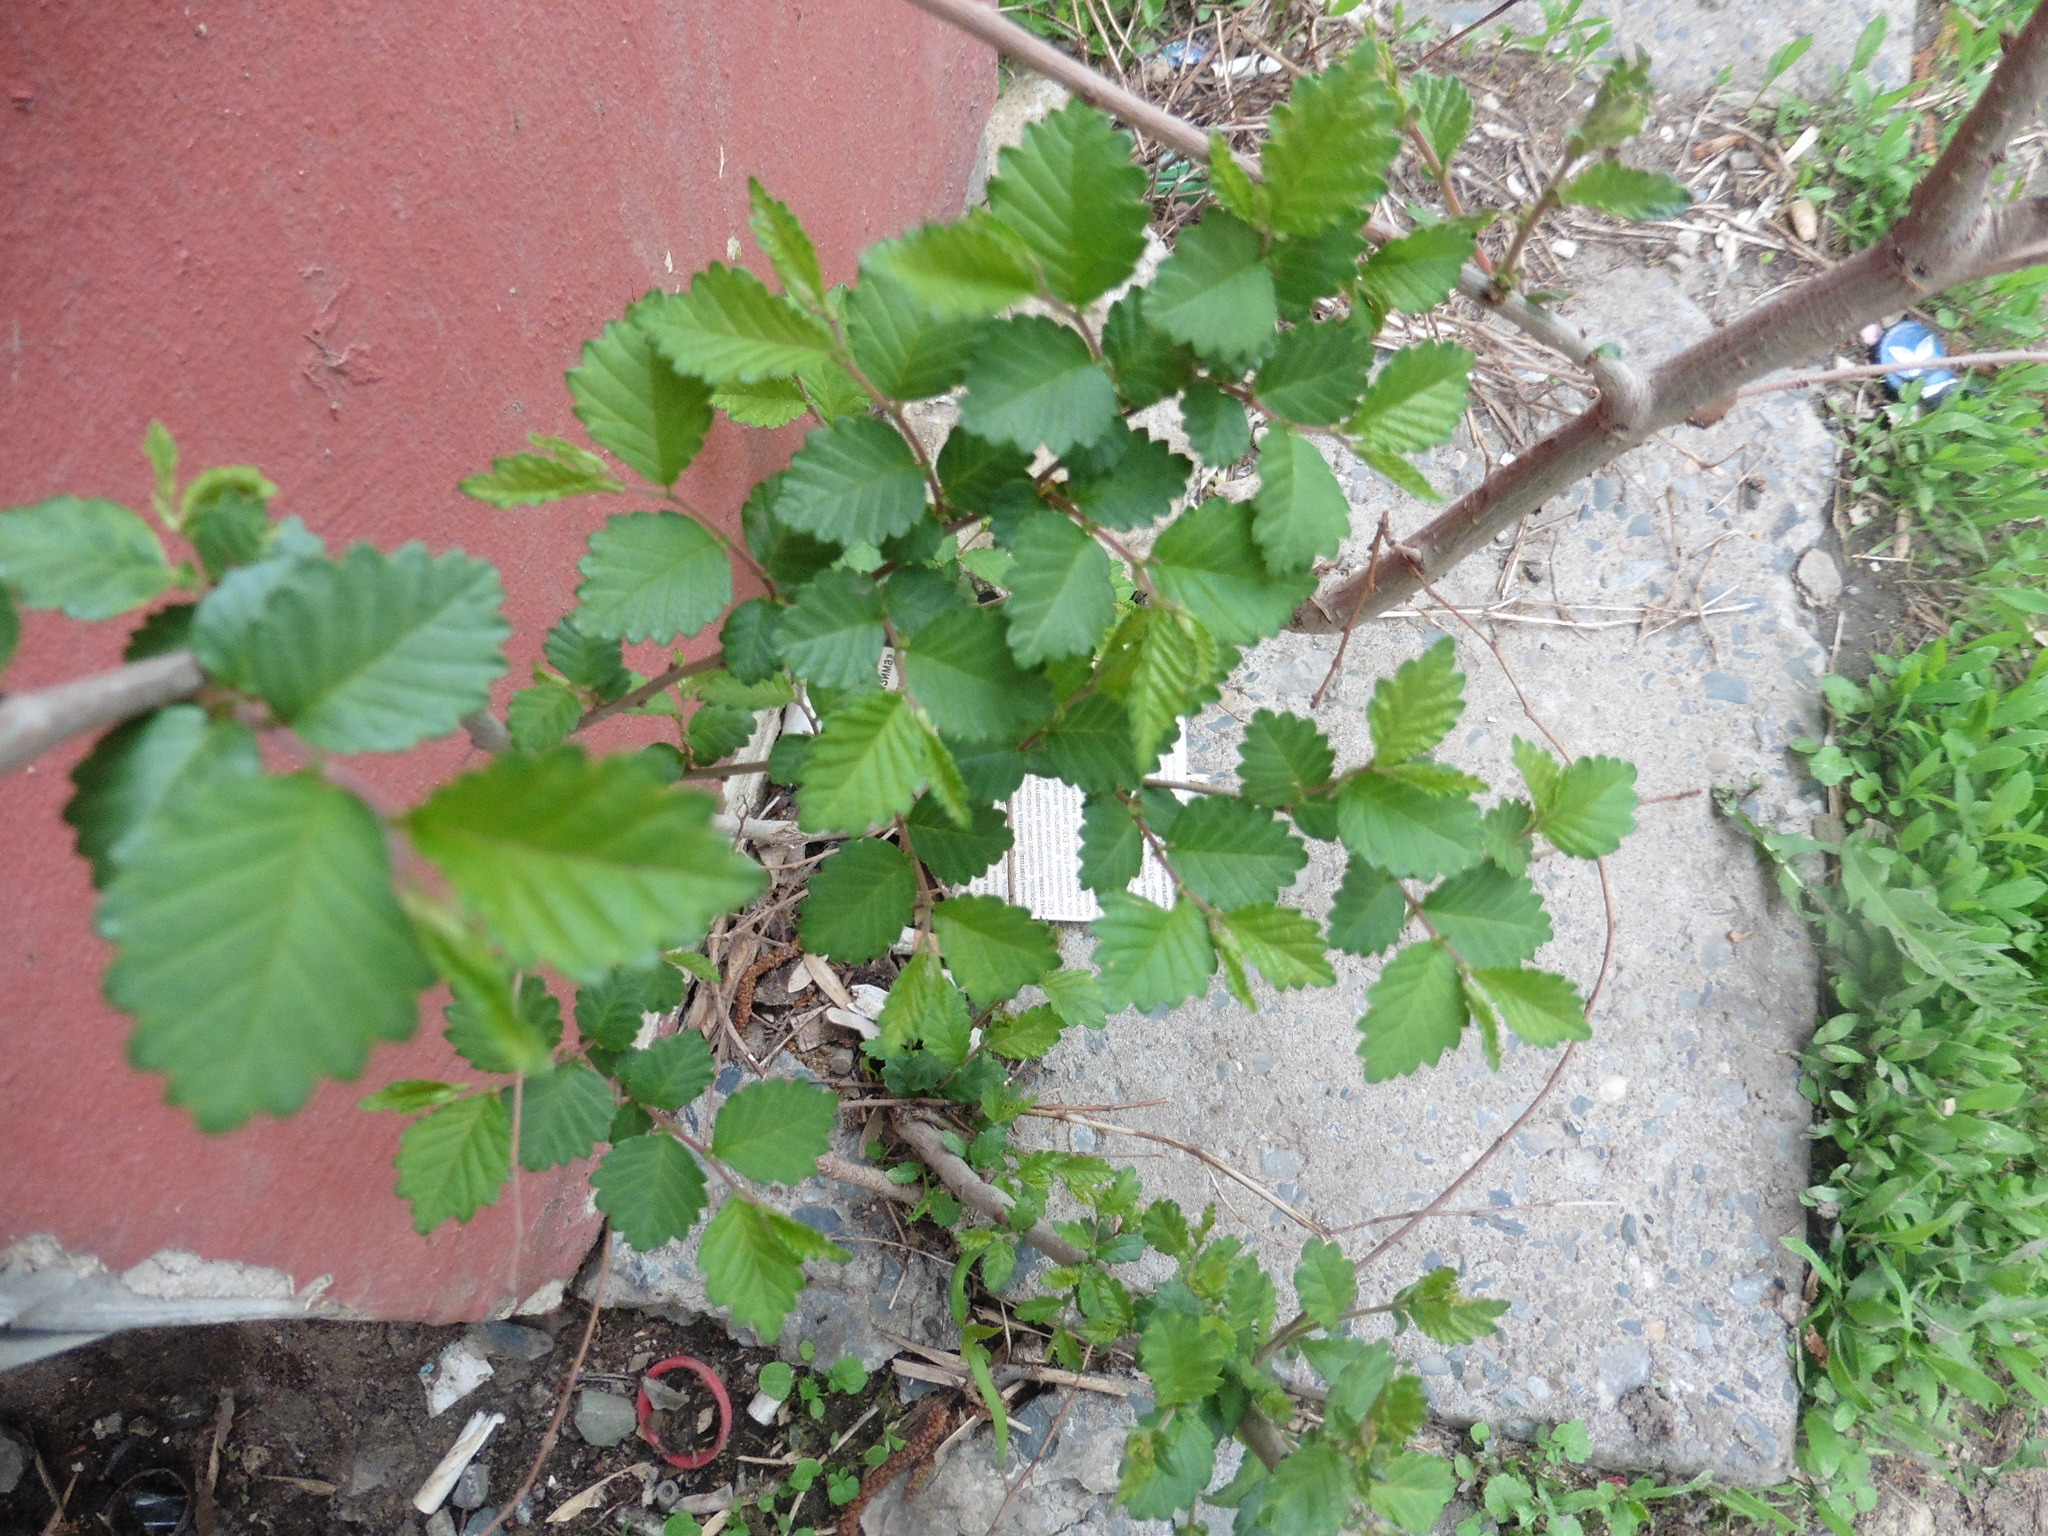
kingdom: Plantae
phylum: Tracheophyta
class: Magnoliopsida
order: Rosales
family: Ulmaceae
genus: Ulmus
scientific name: Ulmus pumila
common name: Siberian elm
